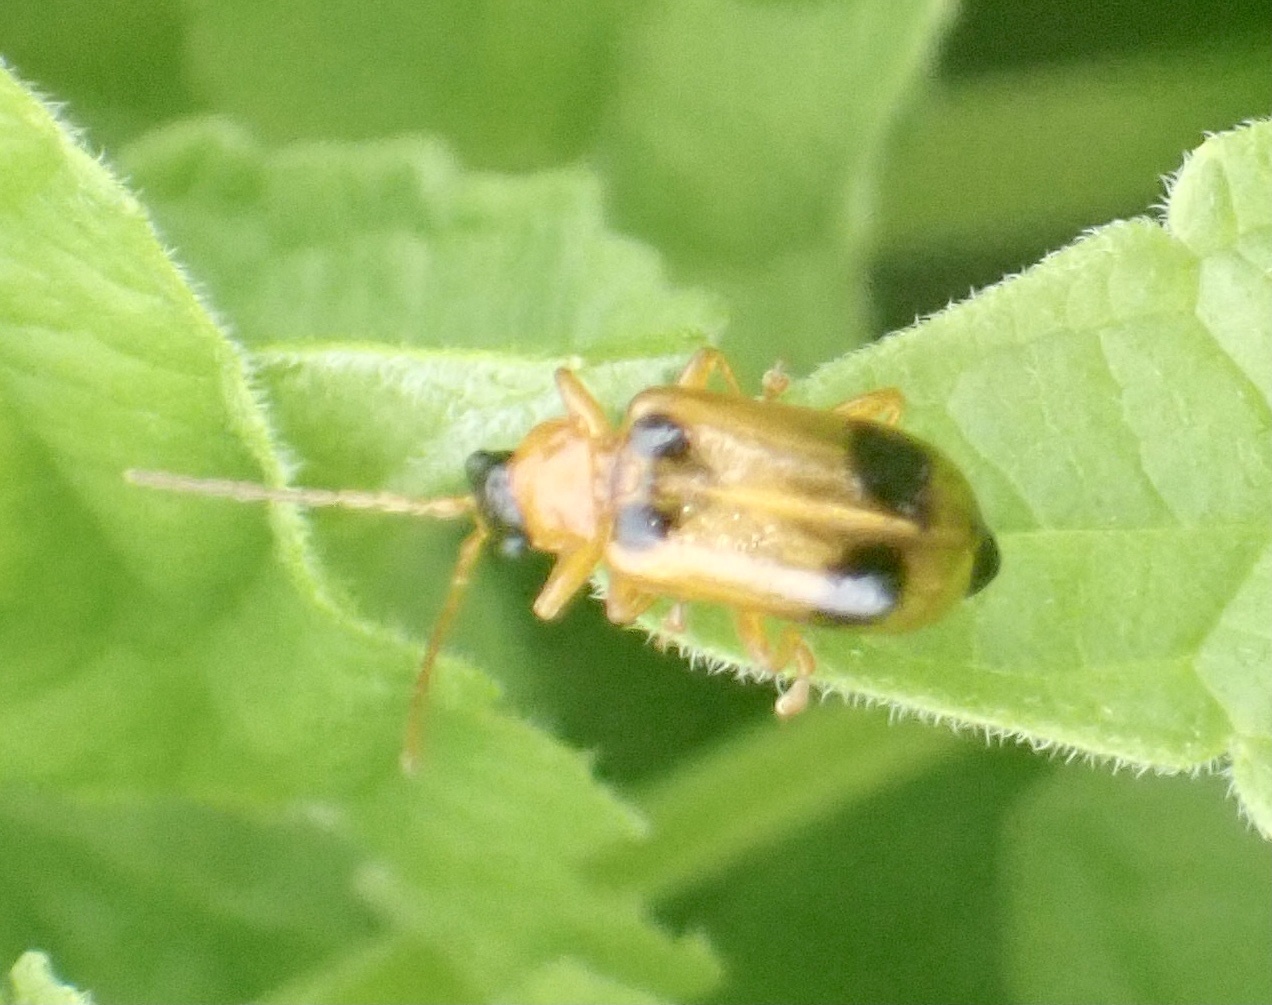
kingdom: Animalia
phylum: Arthropoda
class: Insecta
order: Coleoptera
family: Chrysomelidae
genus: Phyllobrotica
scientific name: Phyllobrotica quadrimaculata
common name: Skullcap leaf beetle
